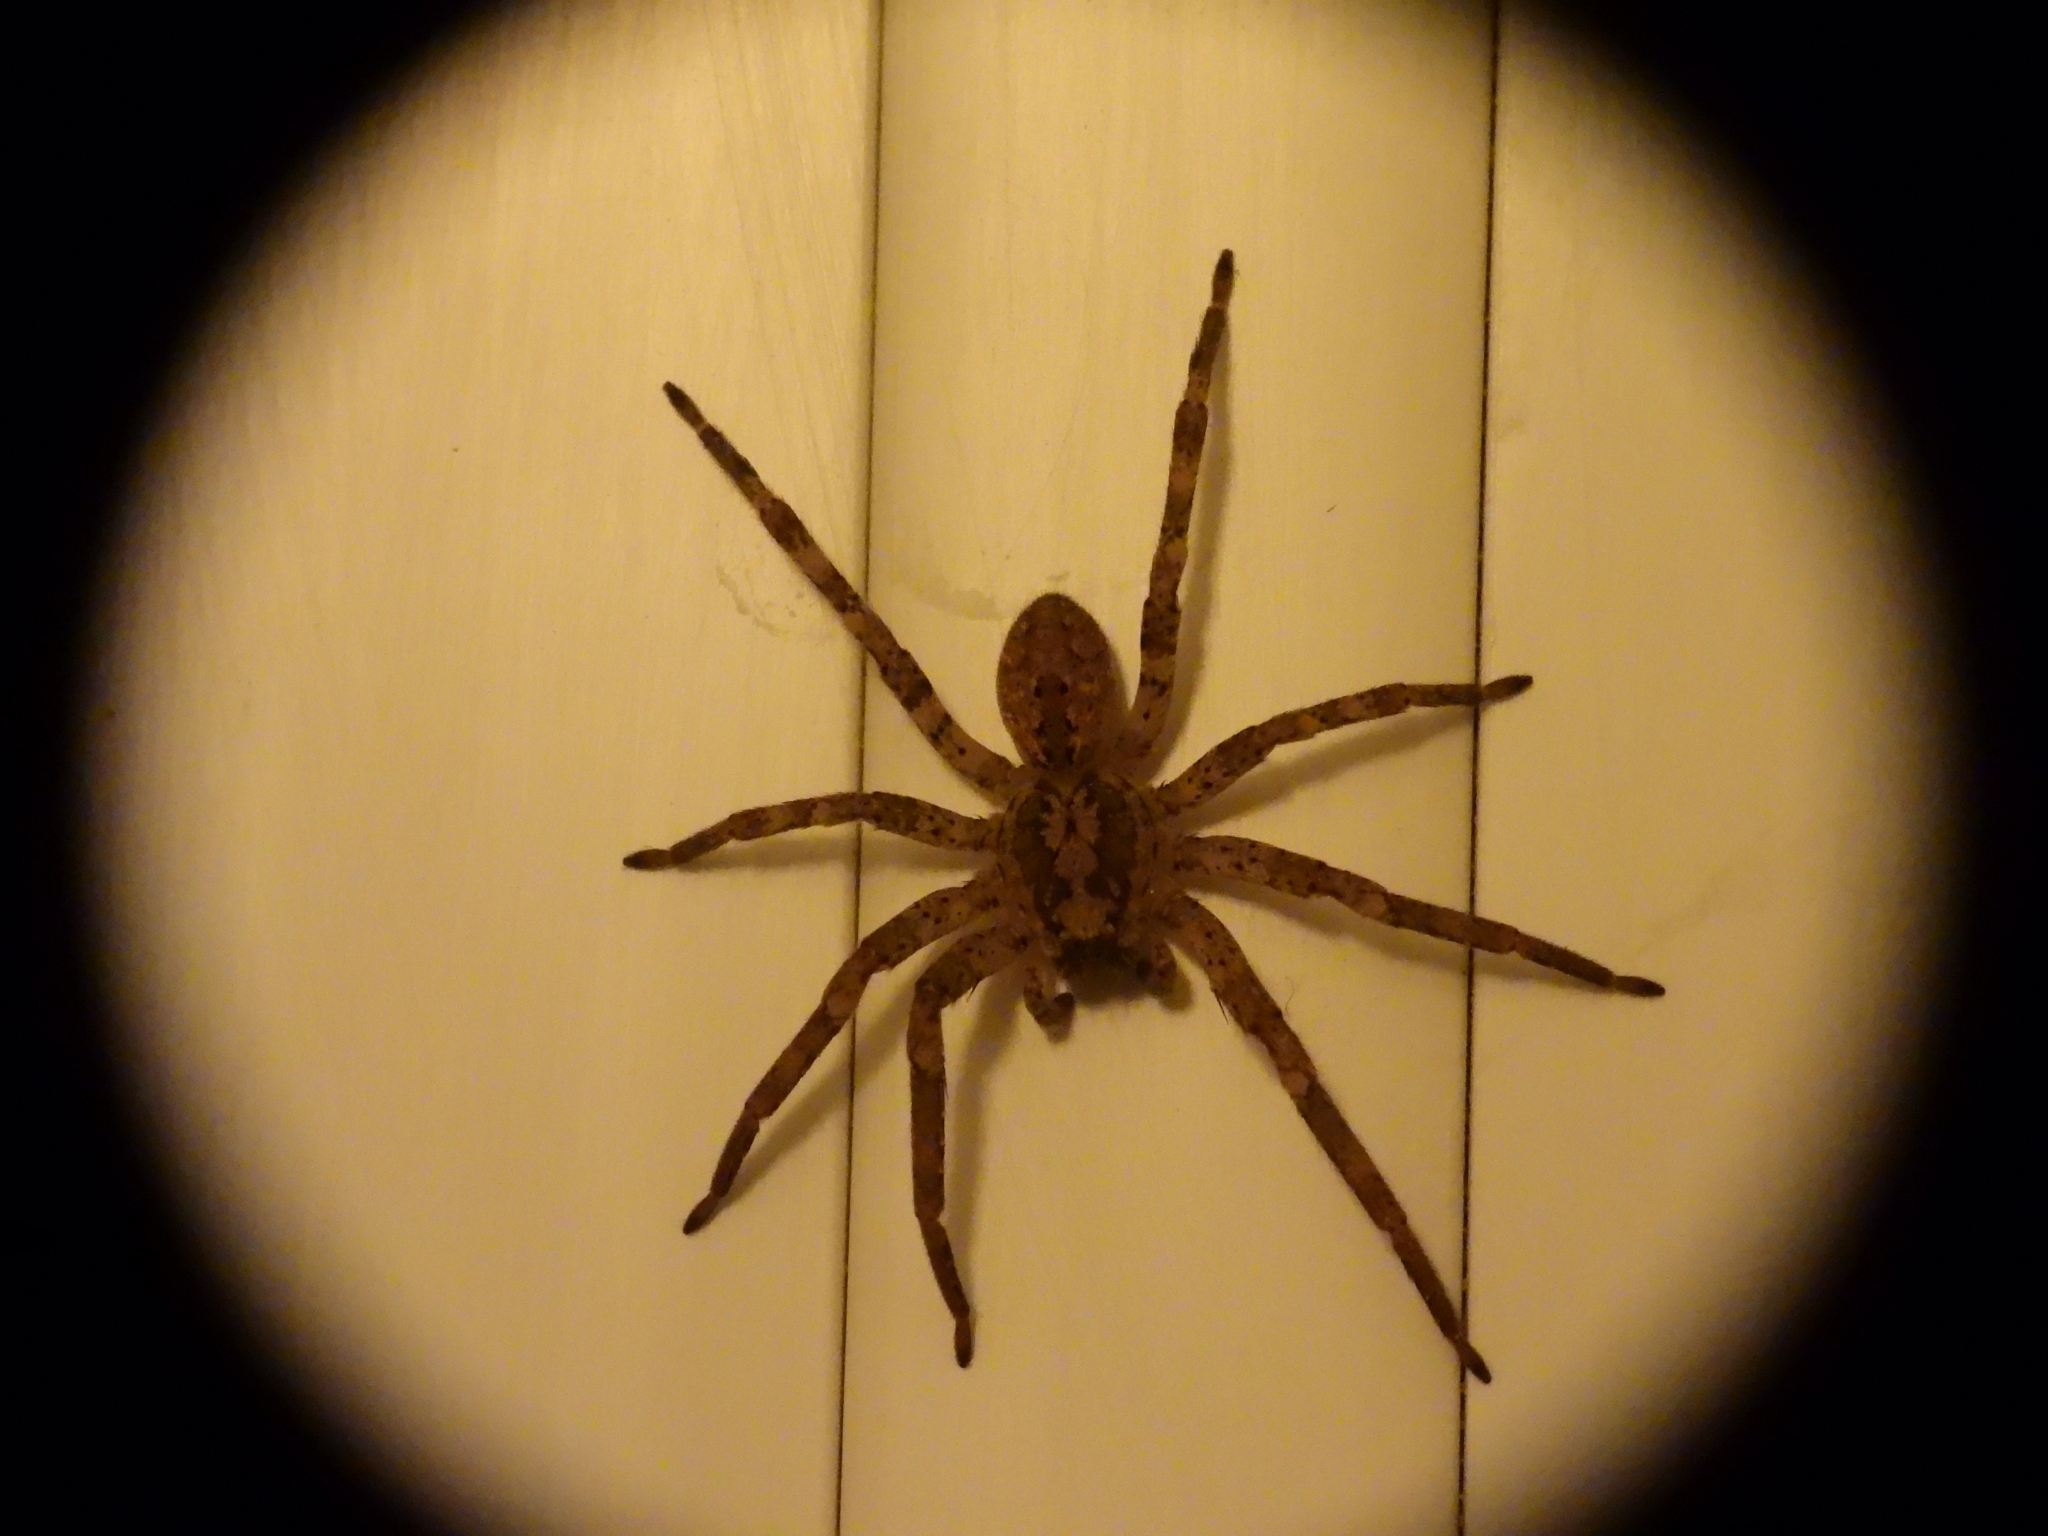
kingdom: Animalia
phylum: Arthropoda
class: Arachnida
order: Araneae
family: Zoropsidae
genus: Zoropsis
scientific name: Zoropsis spinimana
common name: Zoropsid spider
